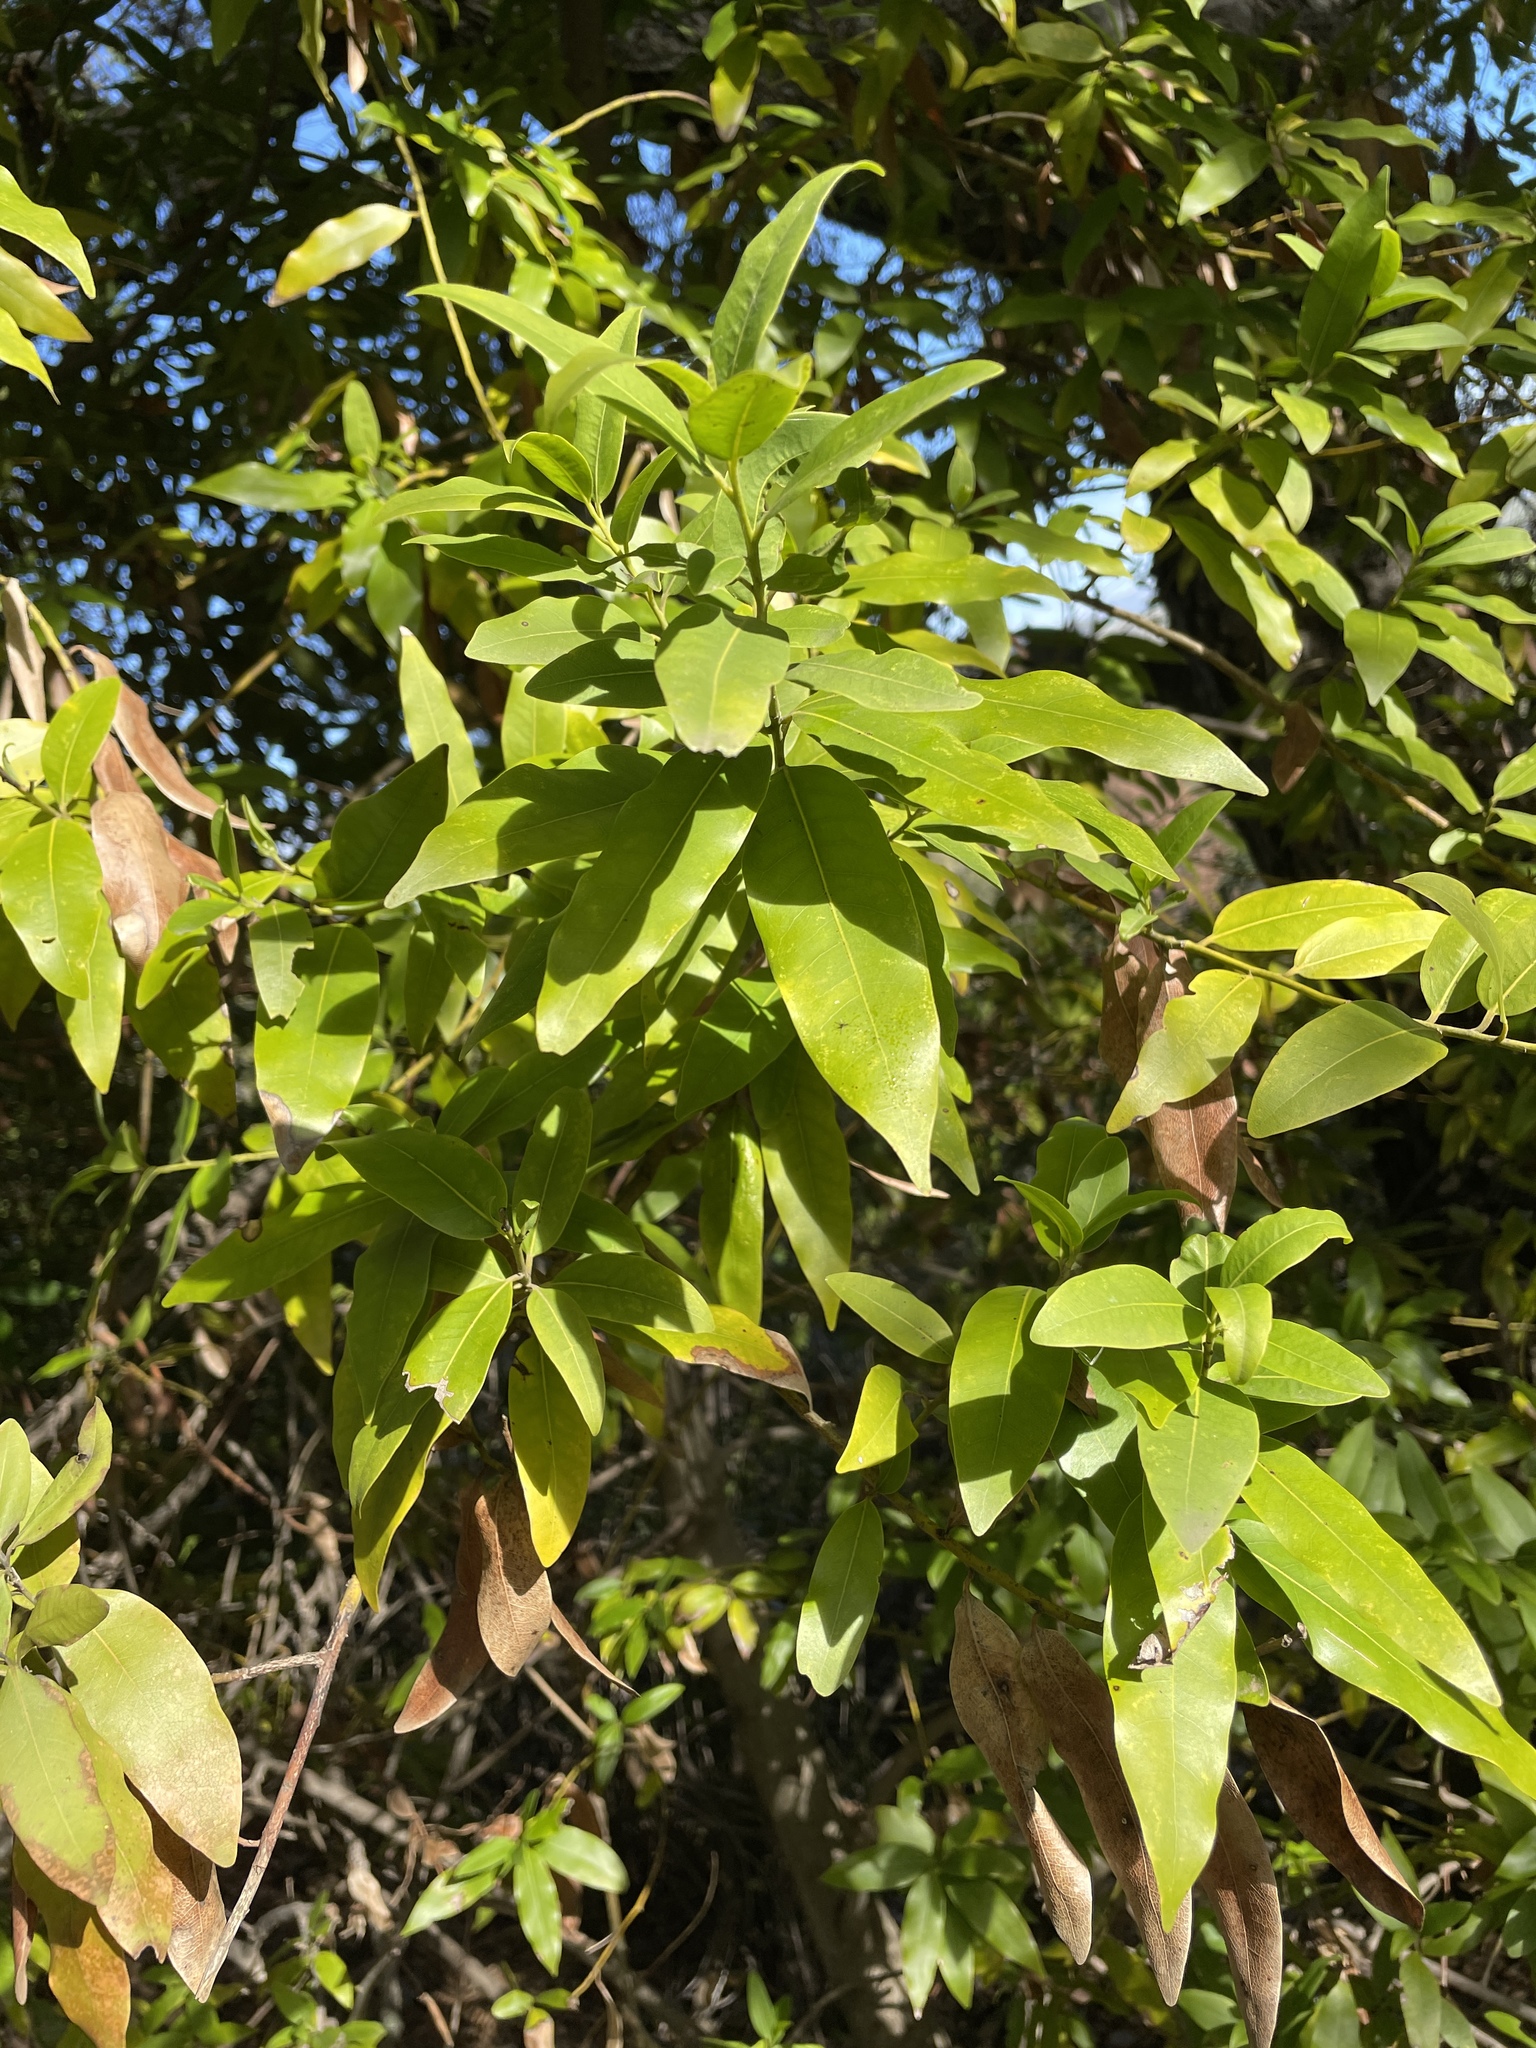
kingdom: Plantae
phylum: Tracheophyta
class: Magnoliopsida
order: Laurales
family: Lauraceae
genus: Umbellularia
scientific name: Umbellularia californica
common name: California bay
